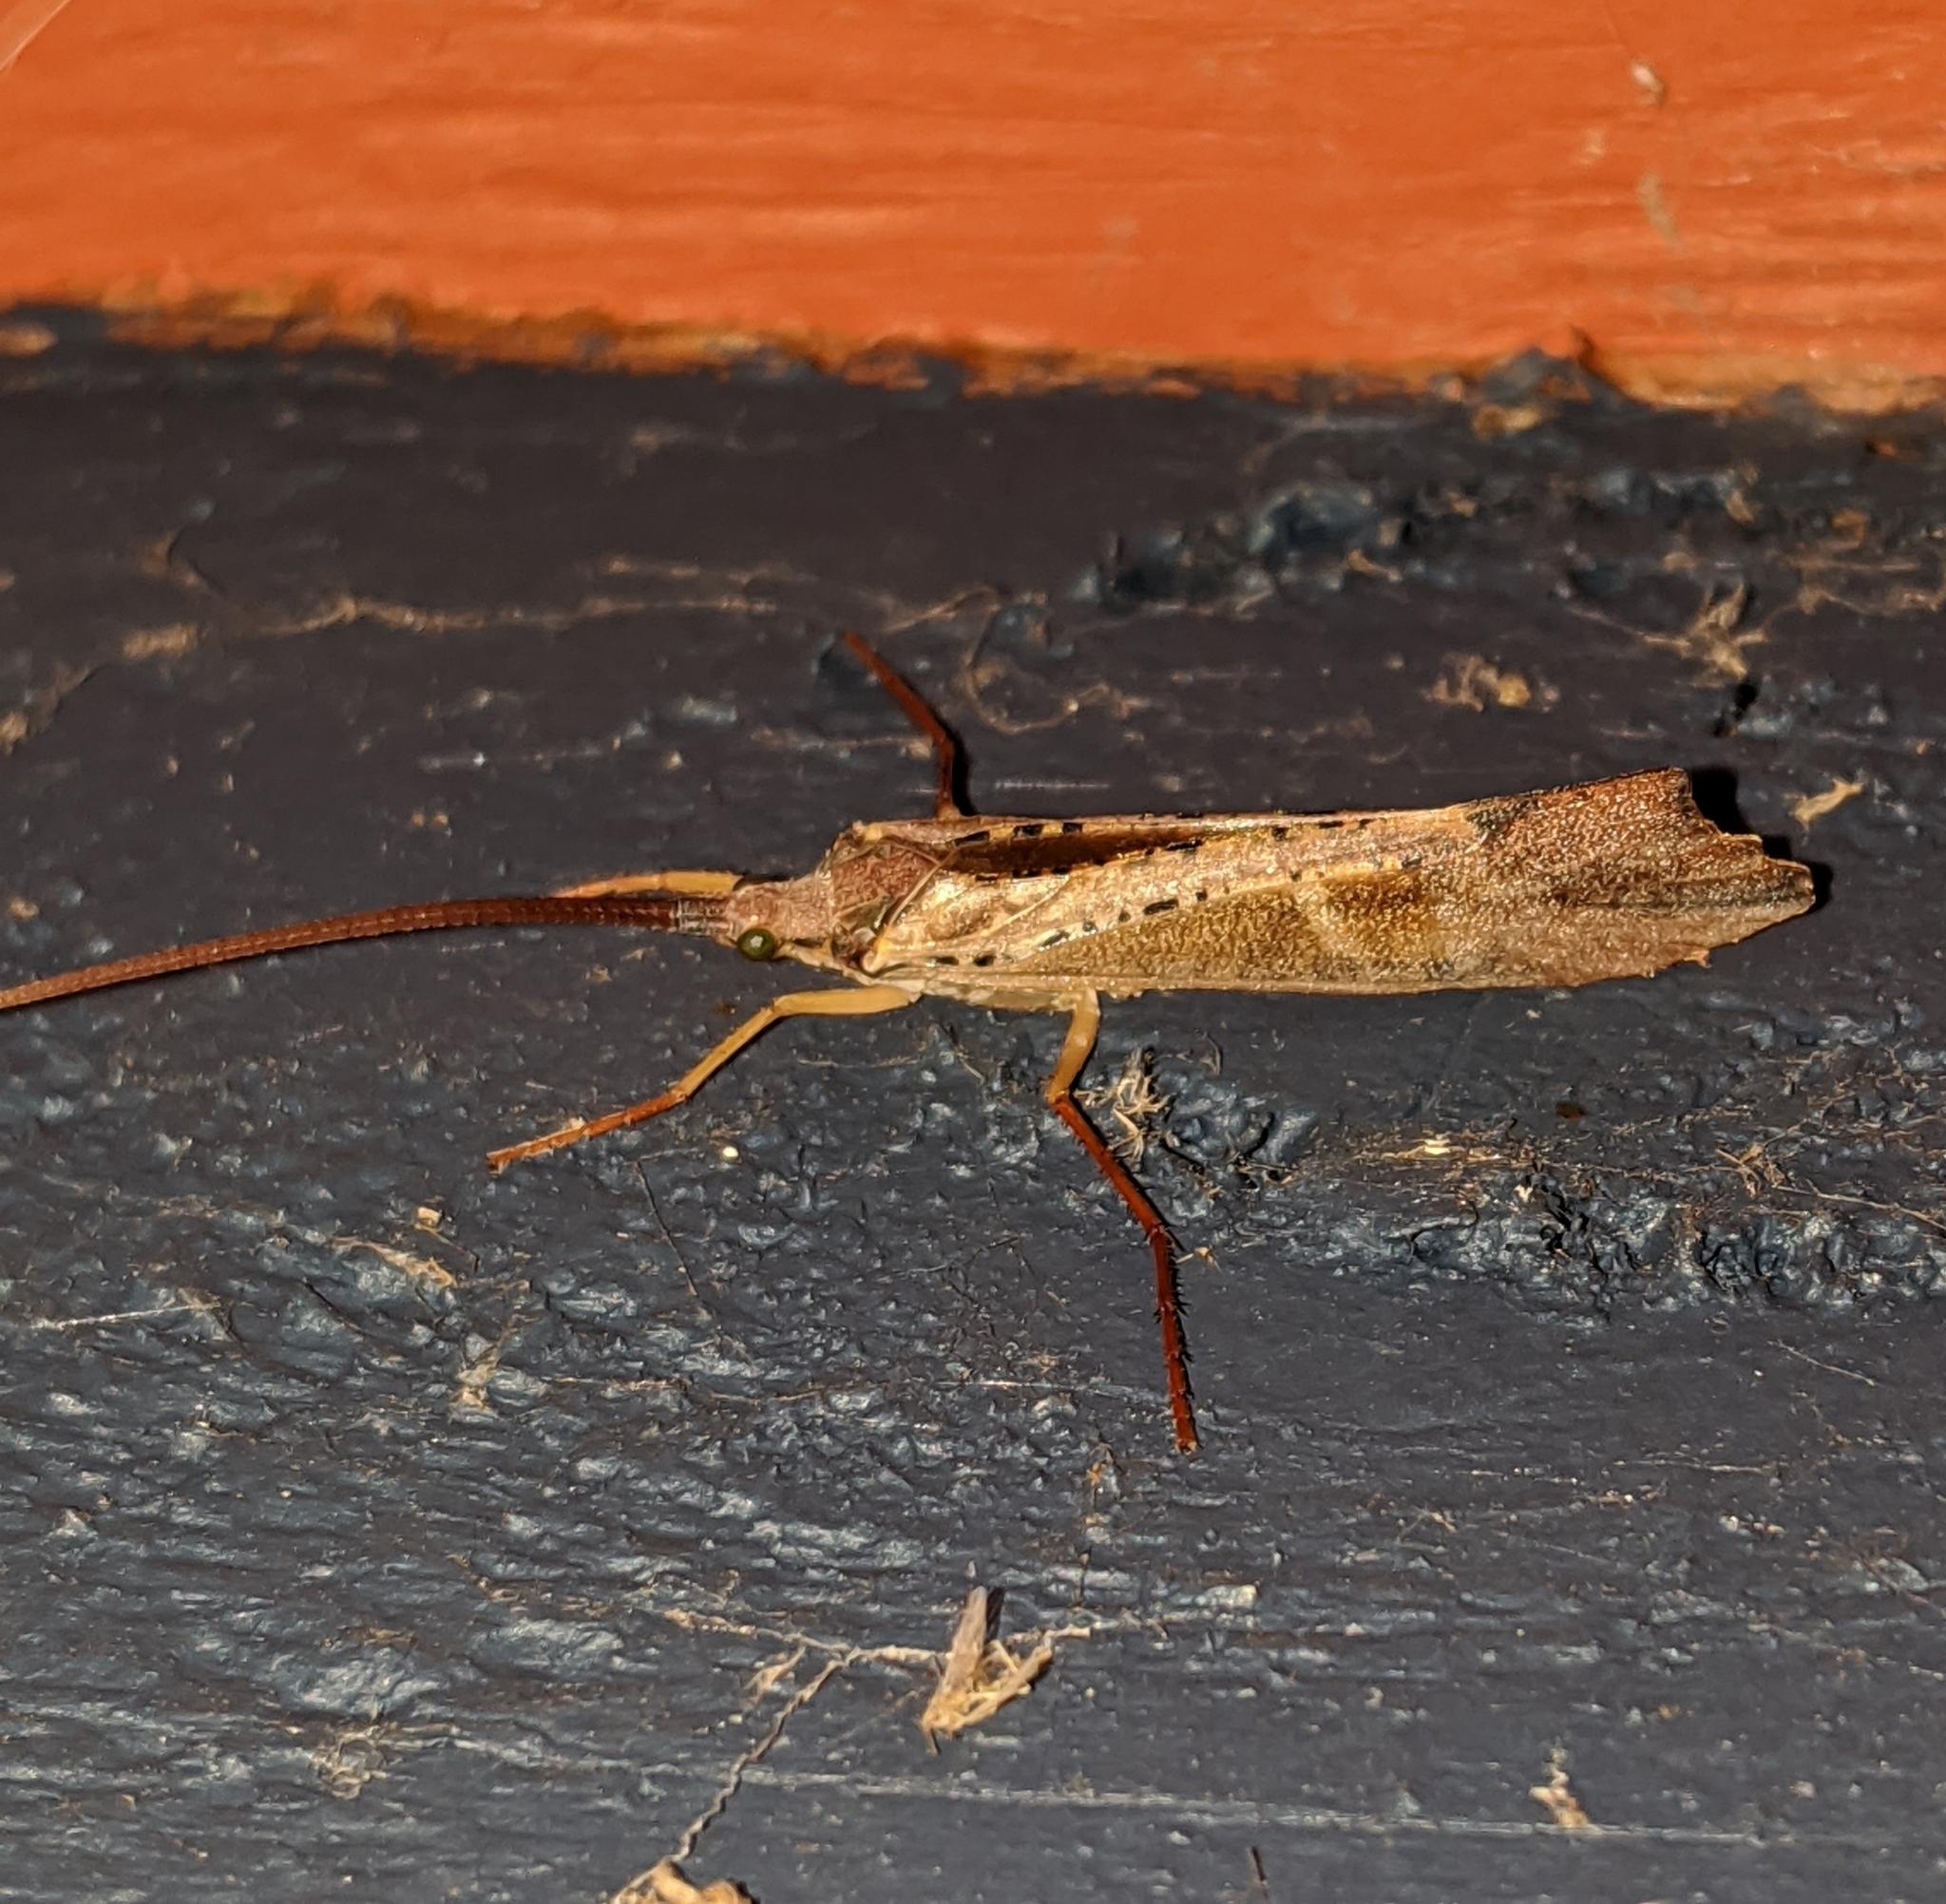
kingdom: Animalia
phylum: Arthropoda
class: Insecta
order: Trichoptera
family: Limnephilidae
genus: Nemotaulius
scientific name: Nemotaulius hostilis
